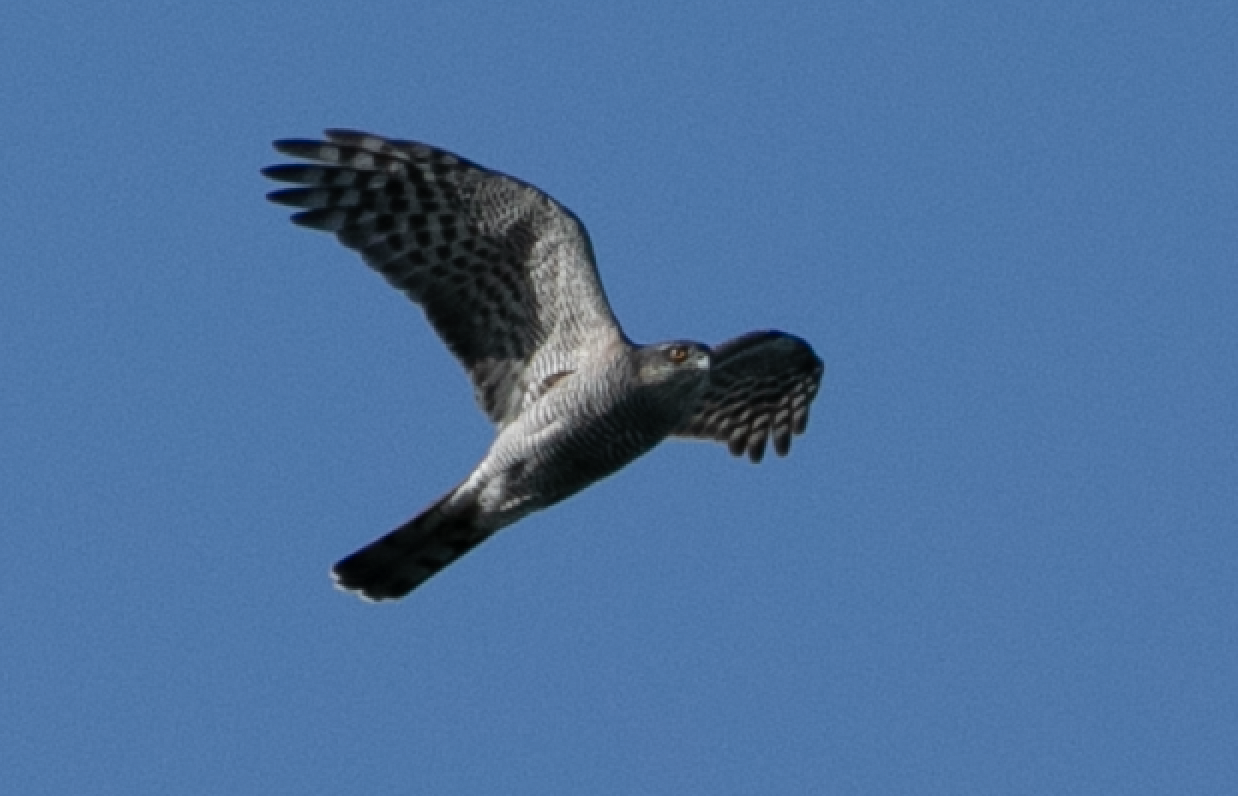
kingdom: Animalia
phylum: Chordata
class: Aves
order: Accipitriformes
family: Accipitridae
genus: Accipiter
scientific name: Accipiter nisus
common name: Eurasian sparrowhawk
